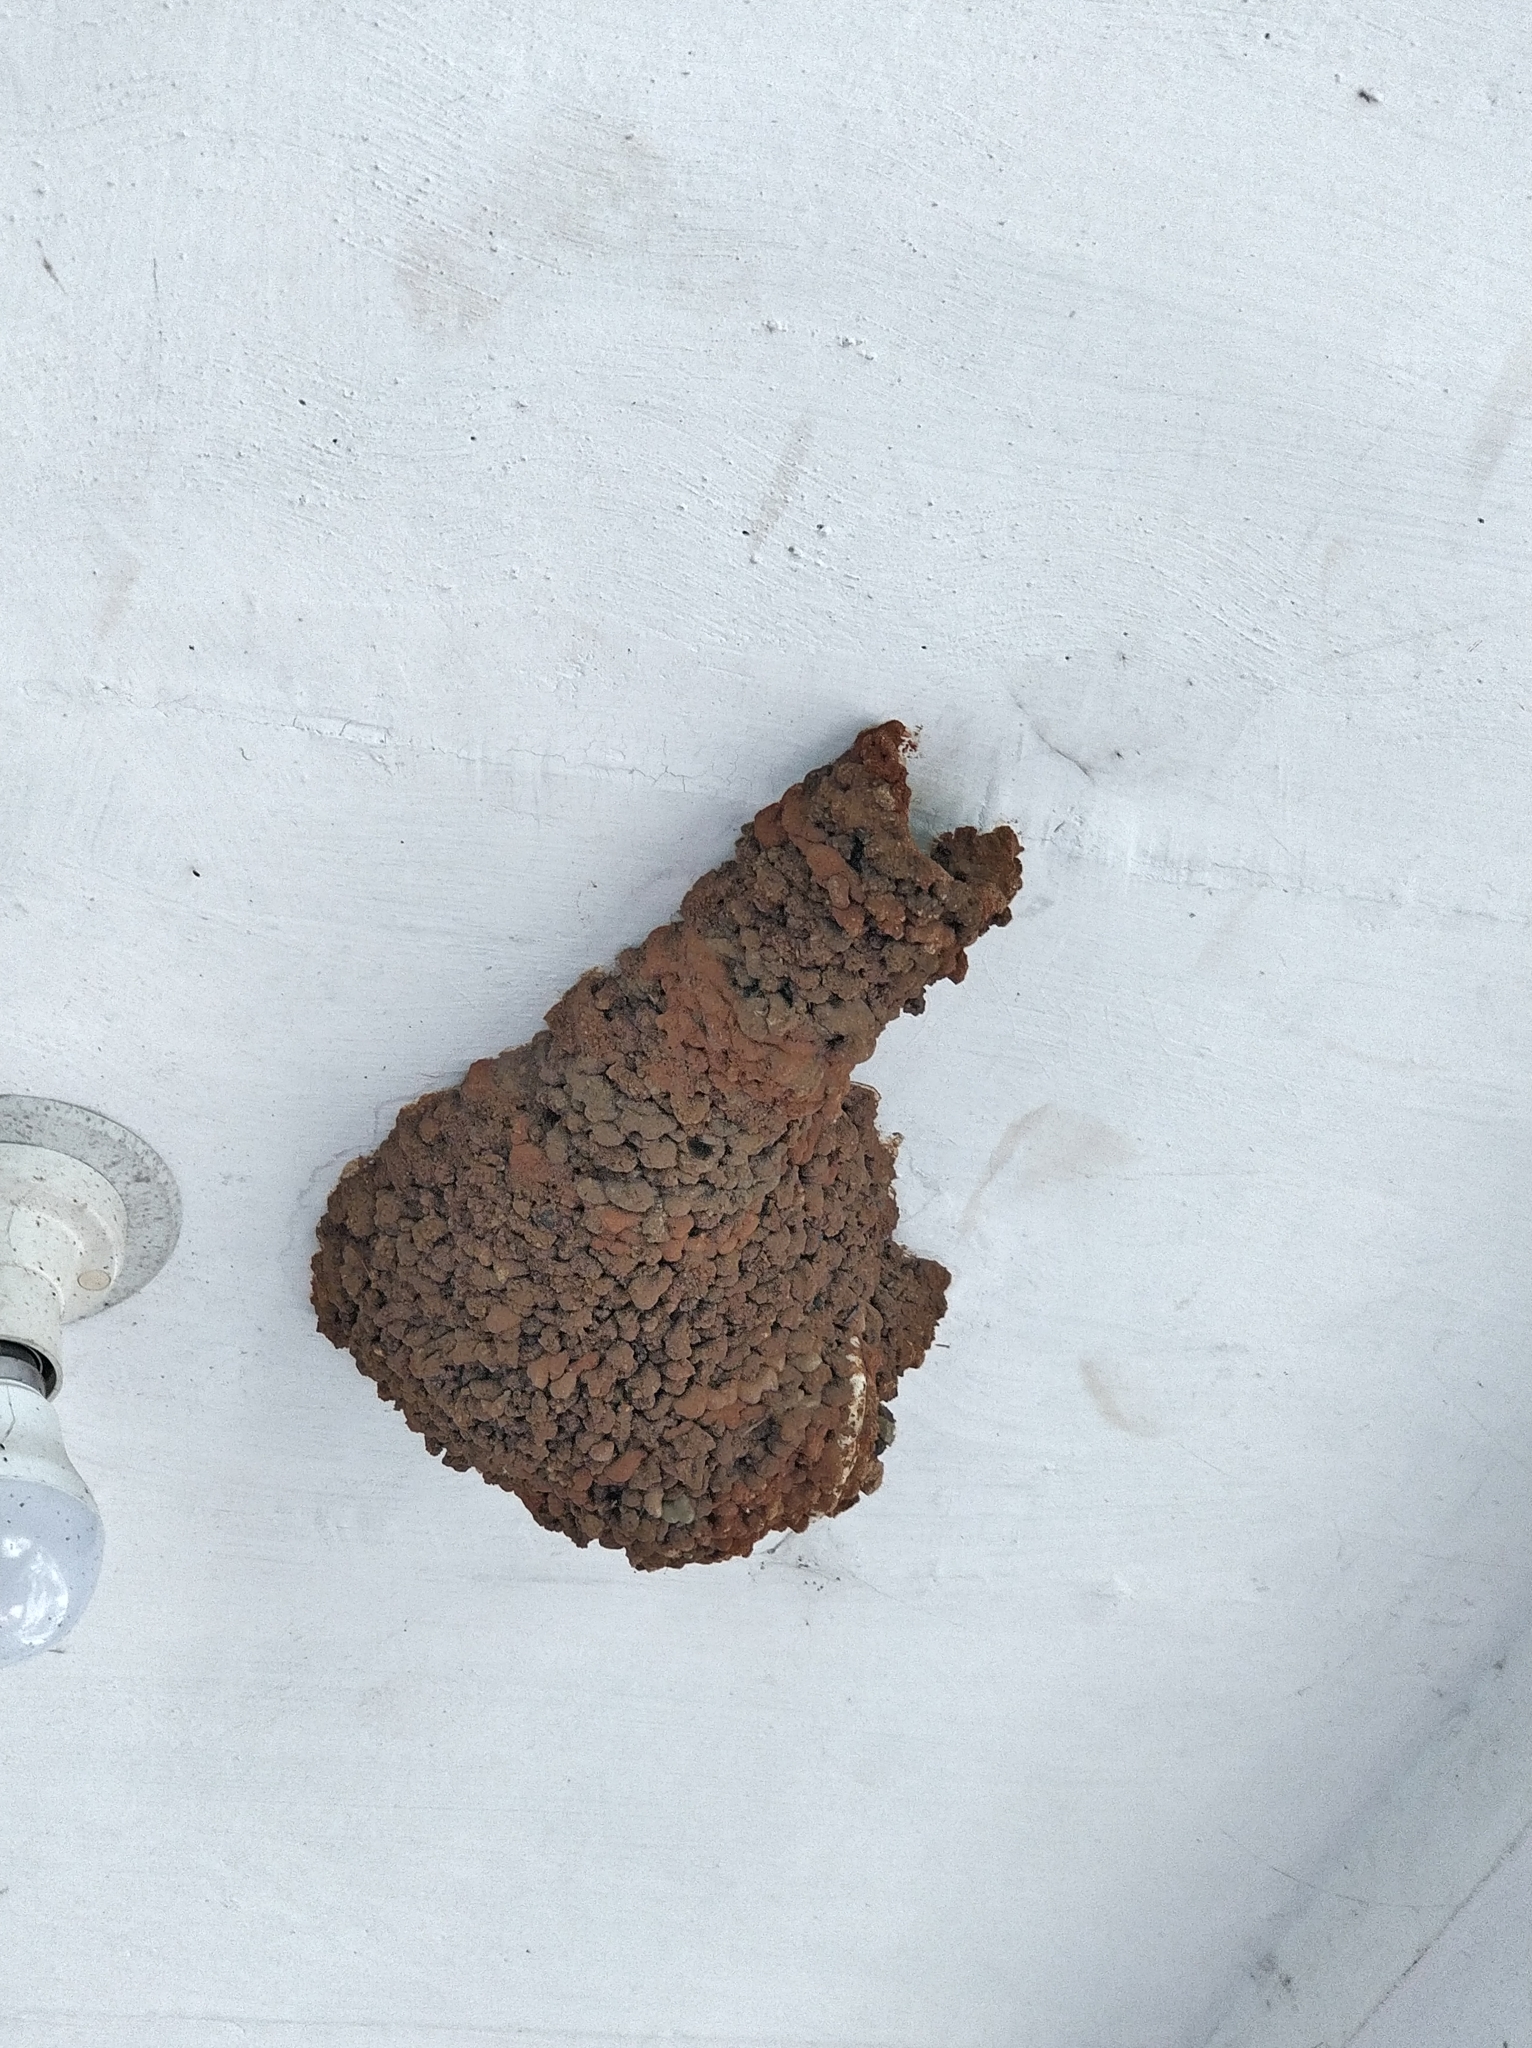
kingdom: Animalia
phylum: Chordata
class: Aves
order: Passeriformes
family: Hirundinidae
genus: Cecropis
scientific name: Cecropis daurica
